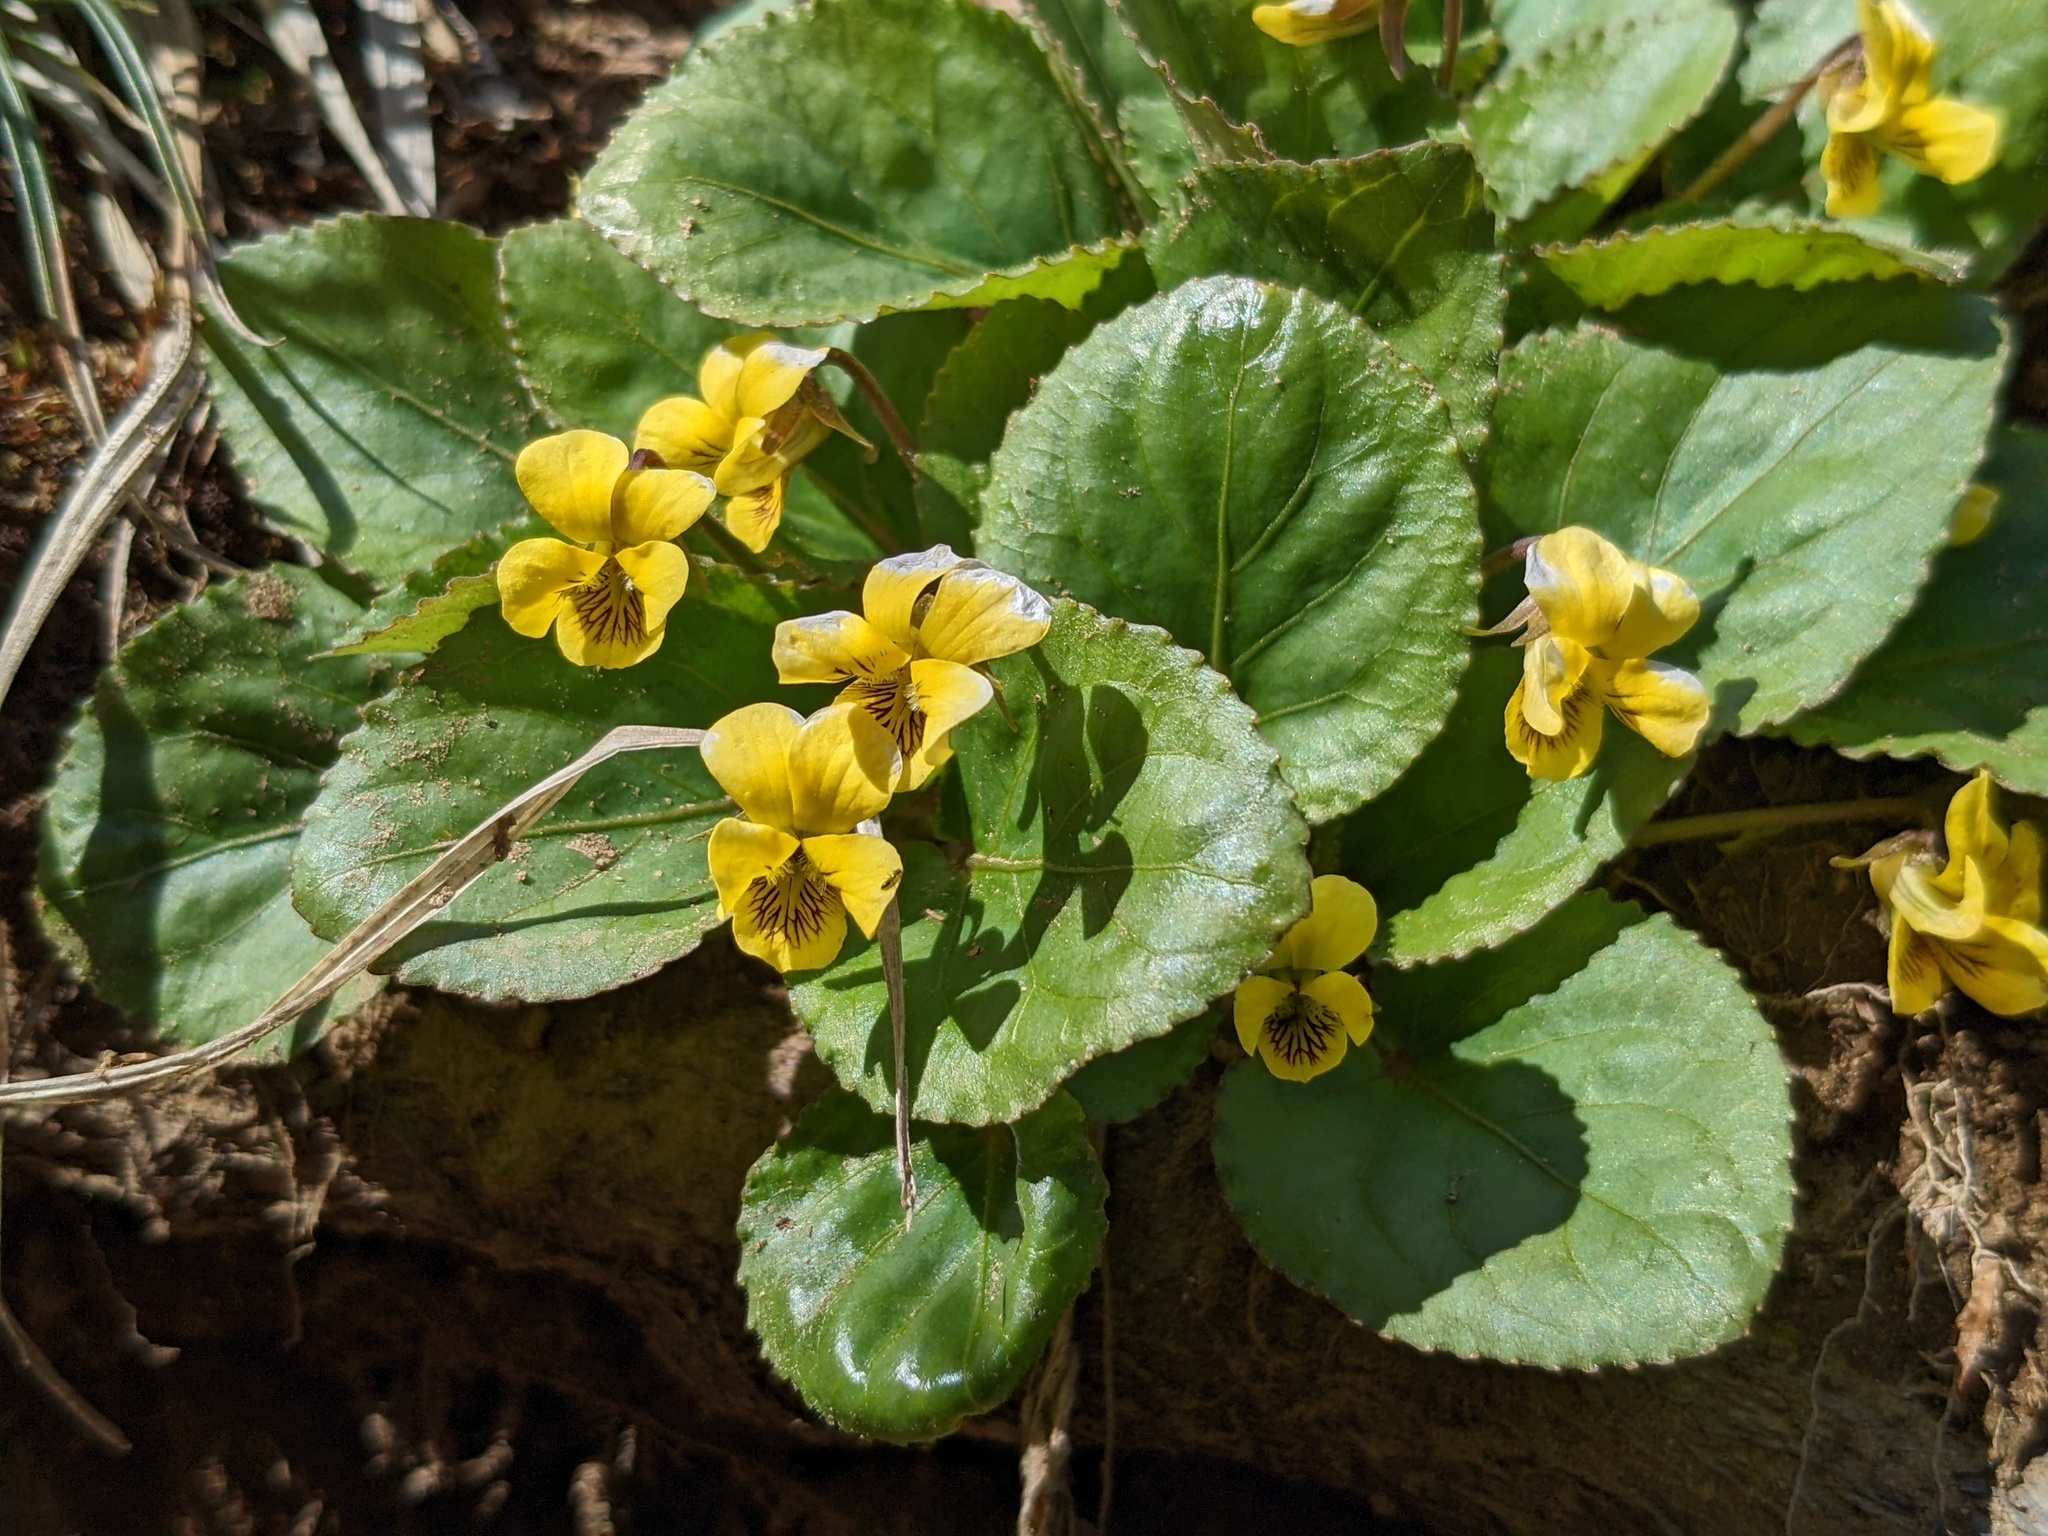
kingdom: Plantae
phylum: Tracheophyta
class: Magnoliopsida
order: Malpighiales
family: Violaceae
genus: Viola
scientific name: Viola rotundifolia
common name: Early yellow violet
